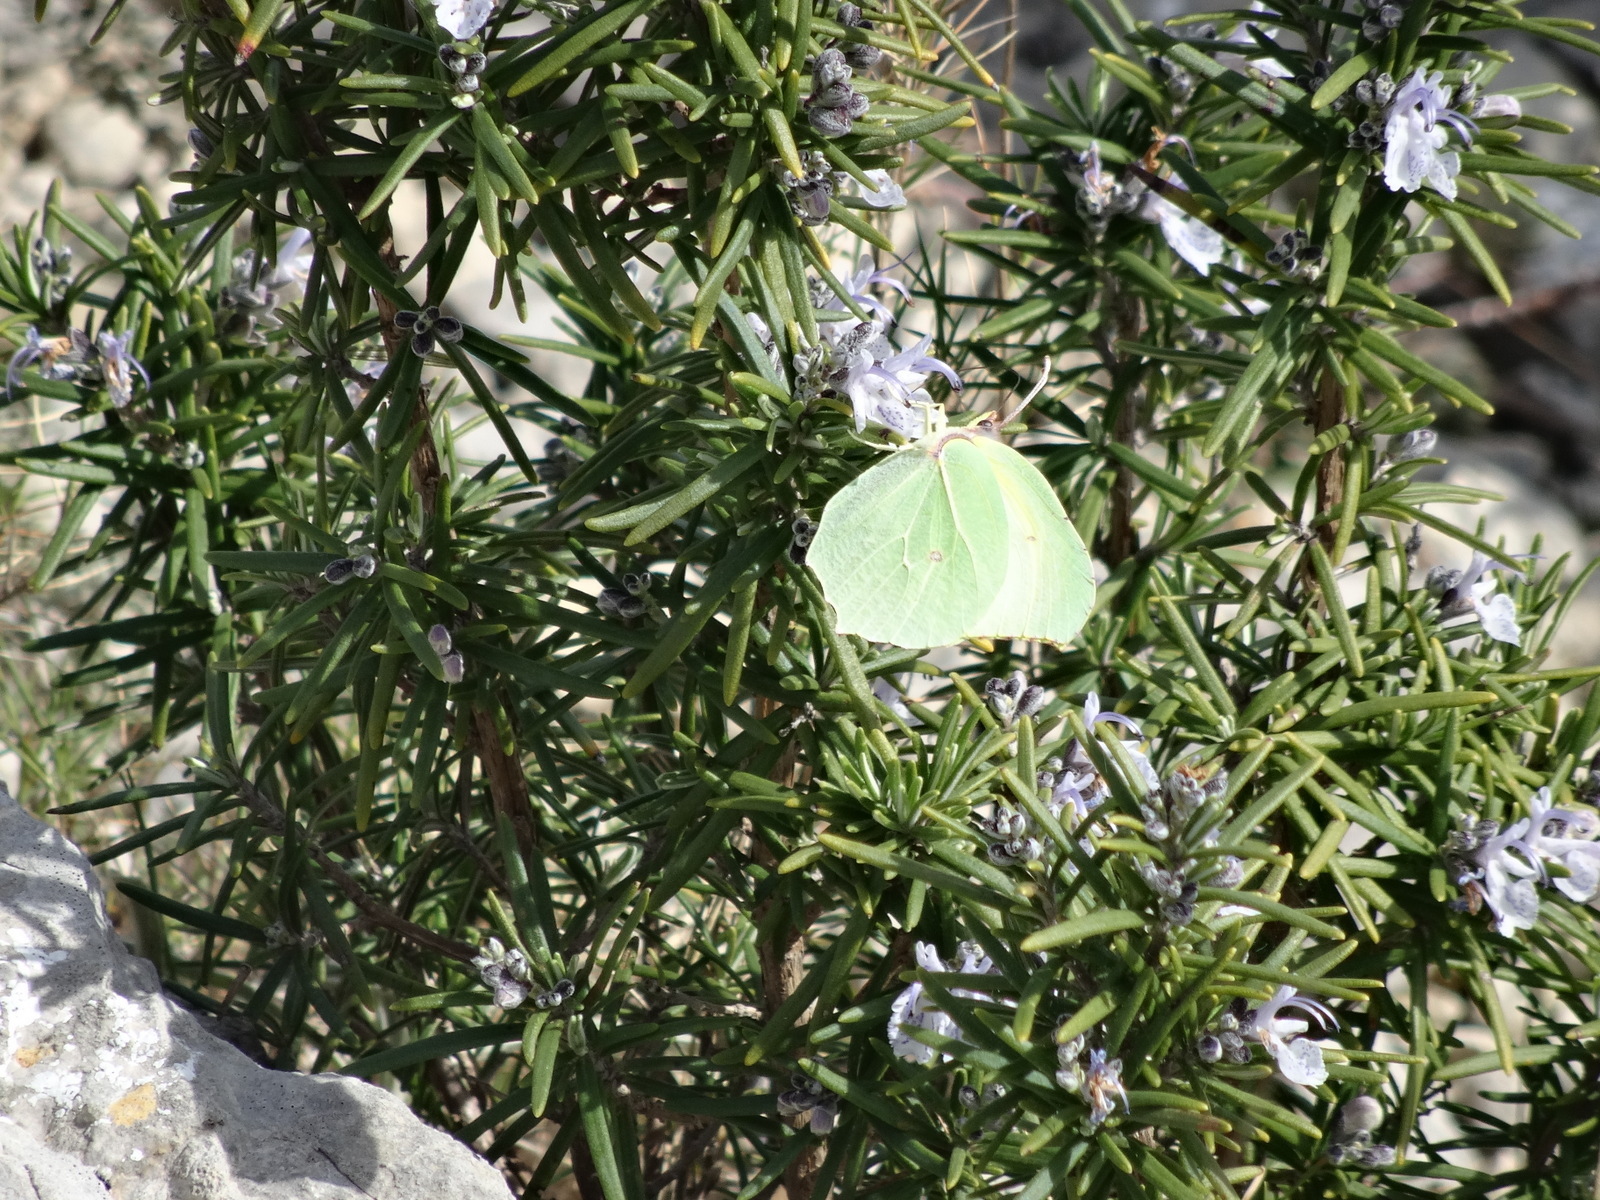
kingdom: Animalia
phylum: Arthropoda
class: Insecta
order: Lepidoptera
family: Pieridae
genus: Gonepteryx
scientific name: Gonepteryx cleopatra
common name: Cleopatra
